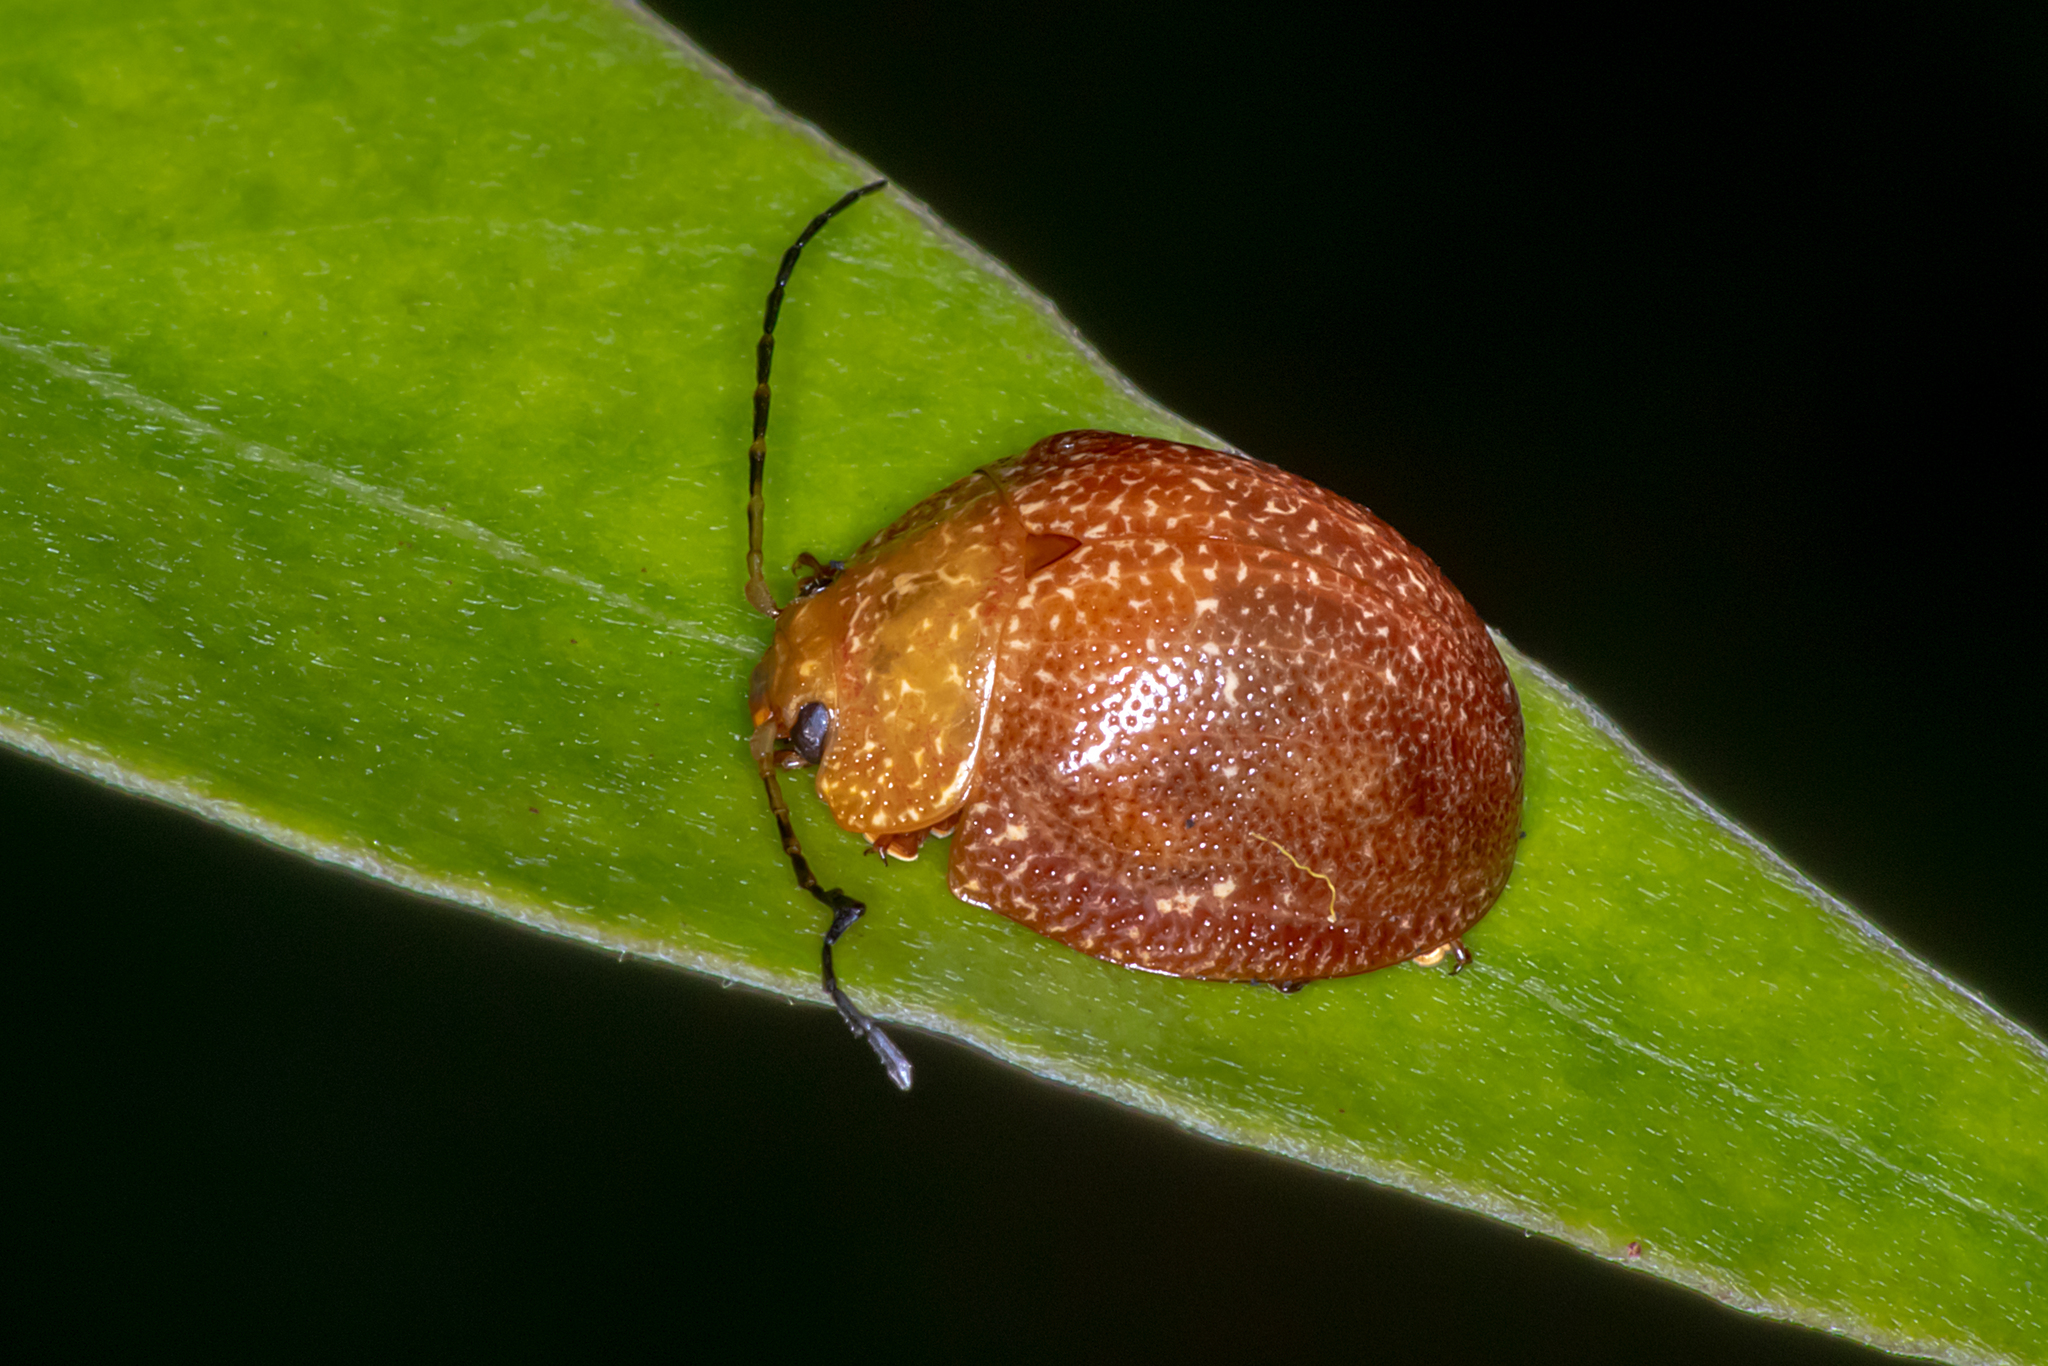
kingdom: Animalia
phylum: Arthropoda
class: Insecta
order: Coleoptera
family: Chrysomelidae
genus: Paropsis
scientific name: Paropsis
